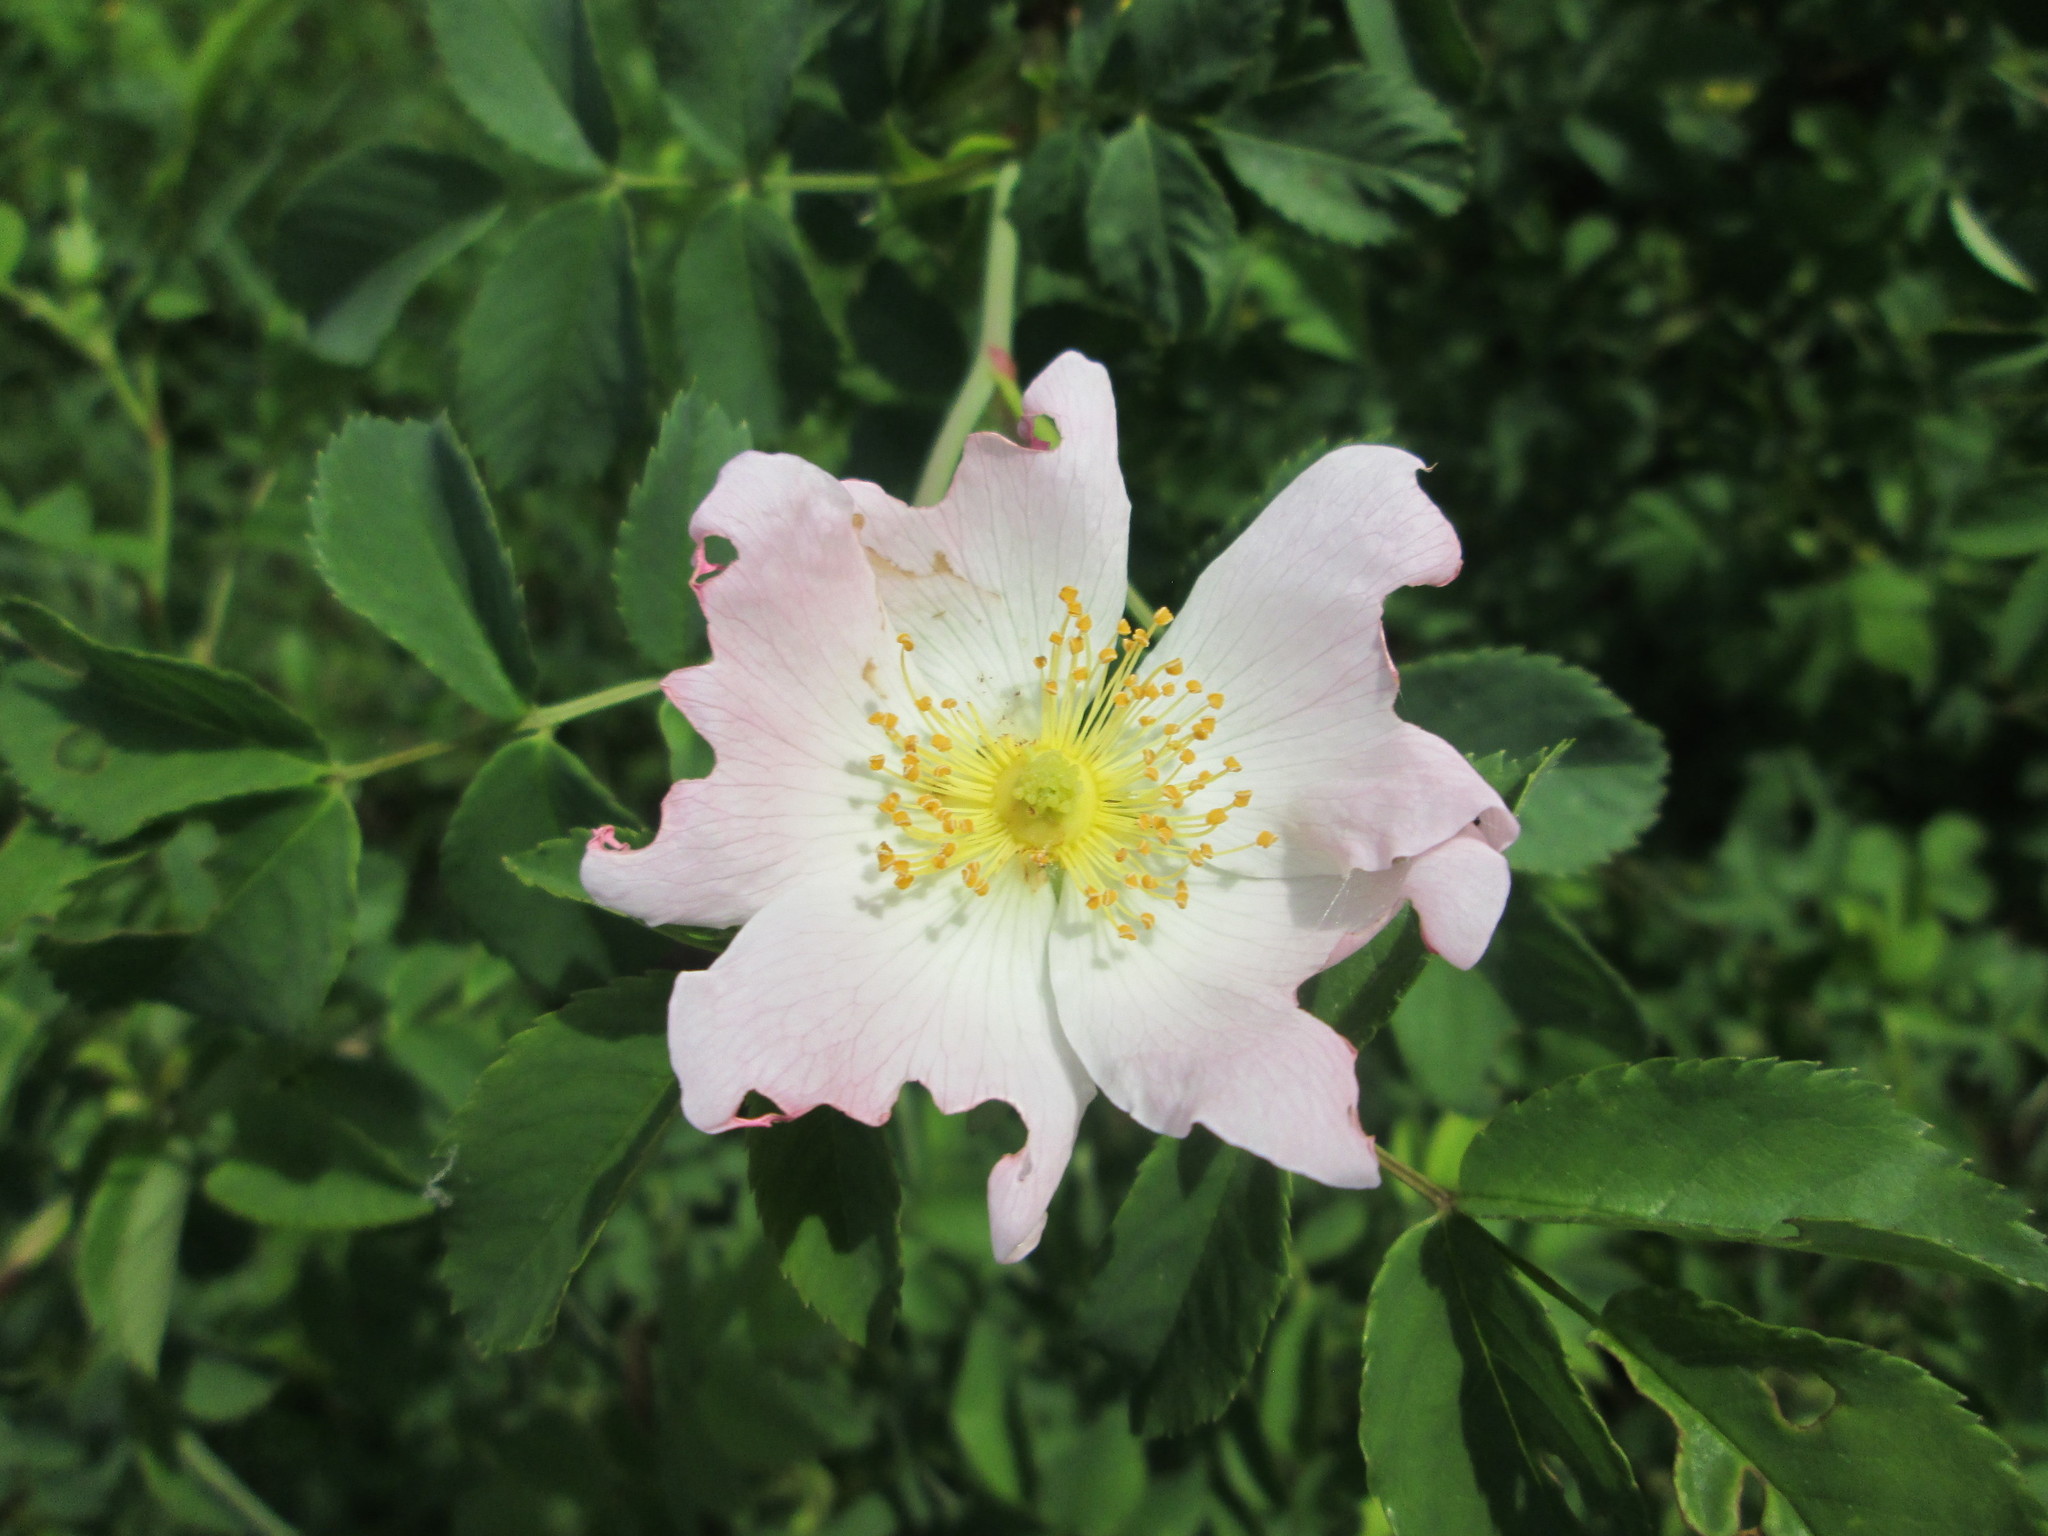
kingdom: Plantae
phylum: Tracheophyta
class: Magnoliopsida
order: Rosales
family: Rosaceae
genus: Rosa
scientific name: Rosa canina
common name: Dog rose
